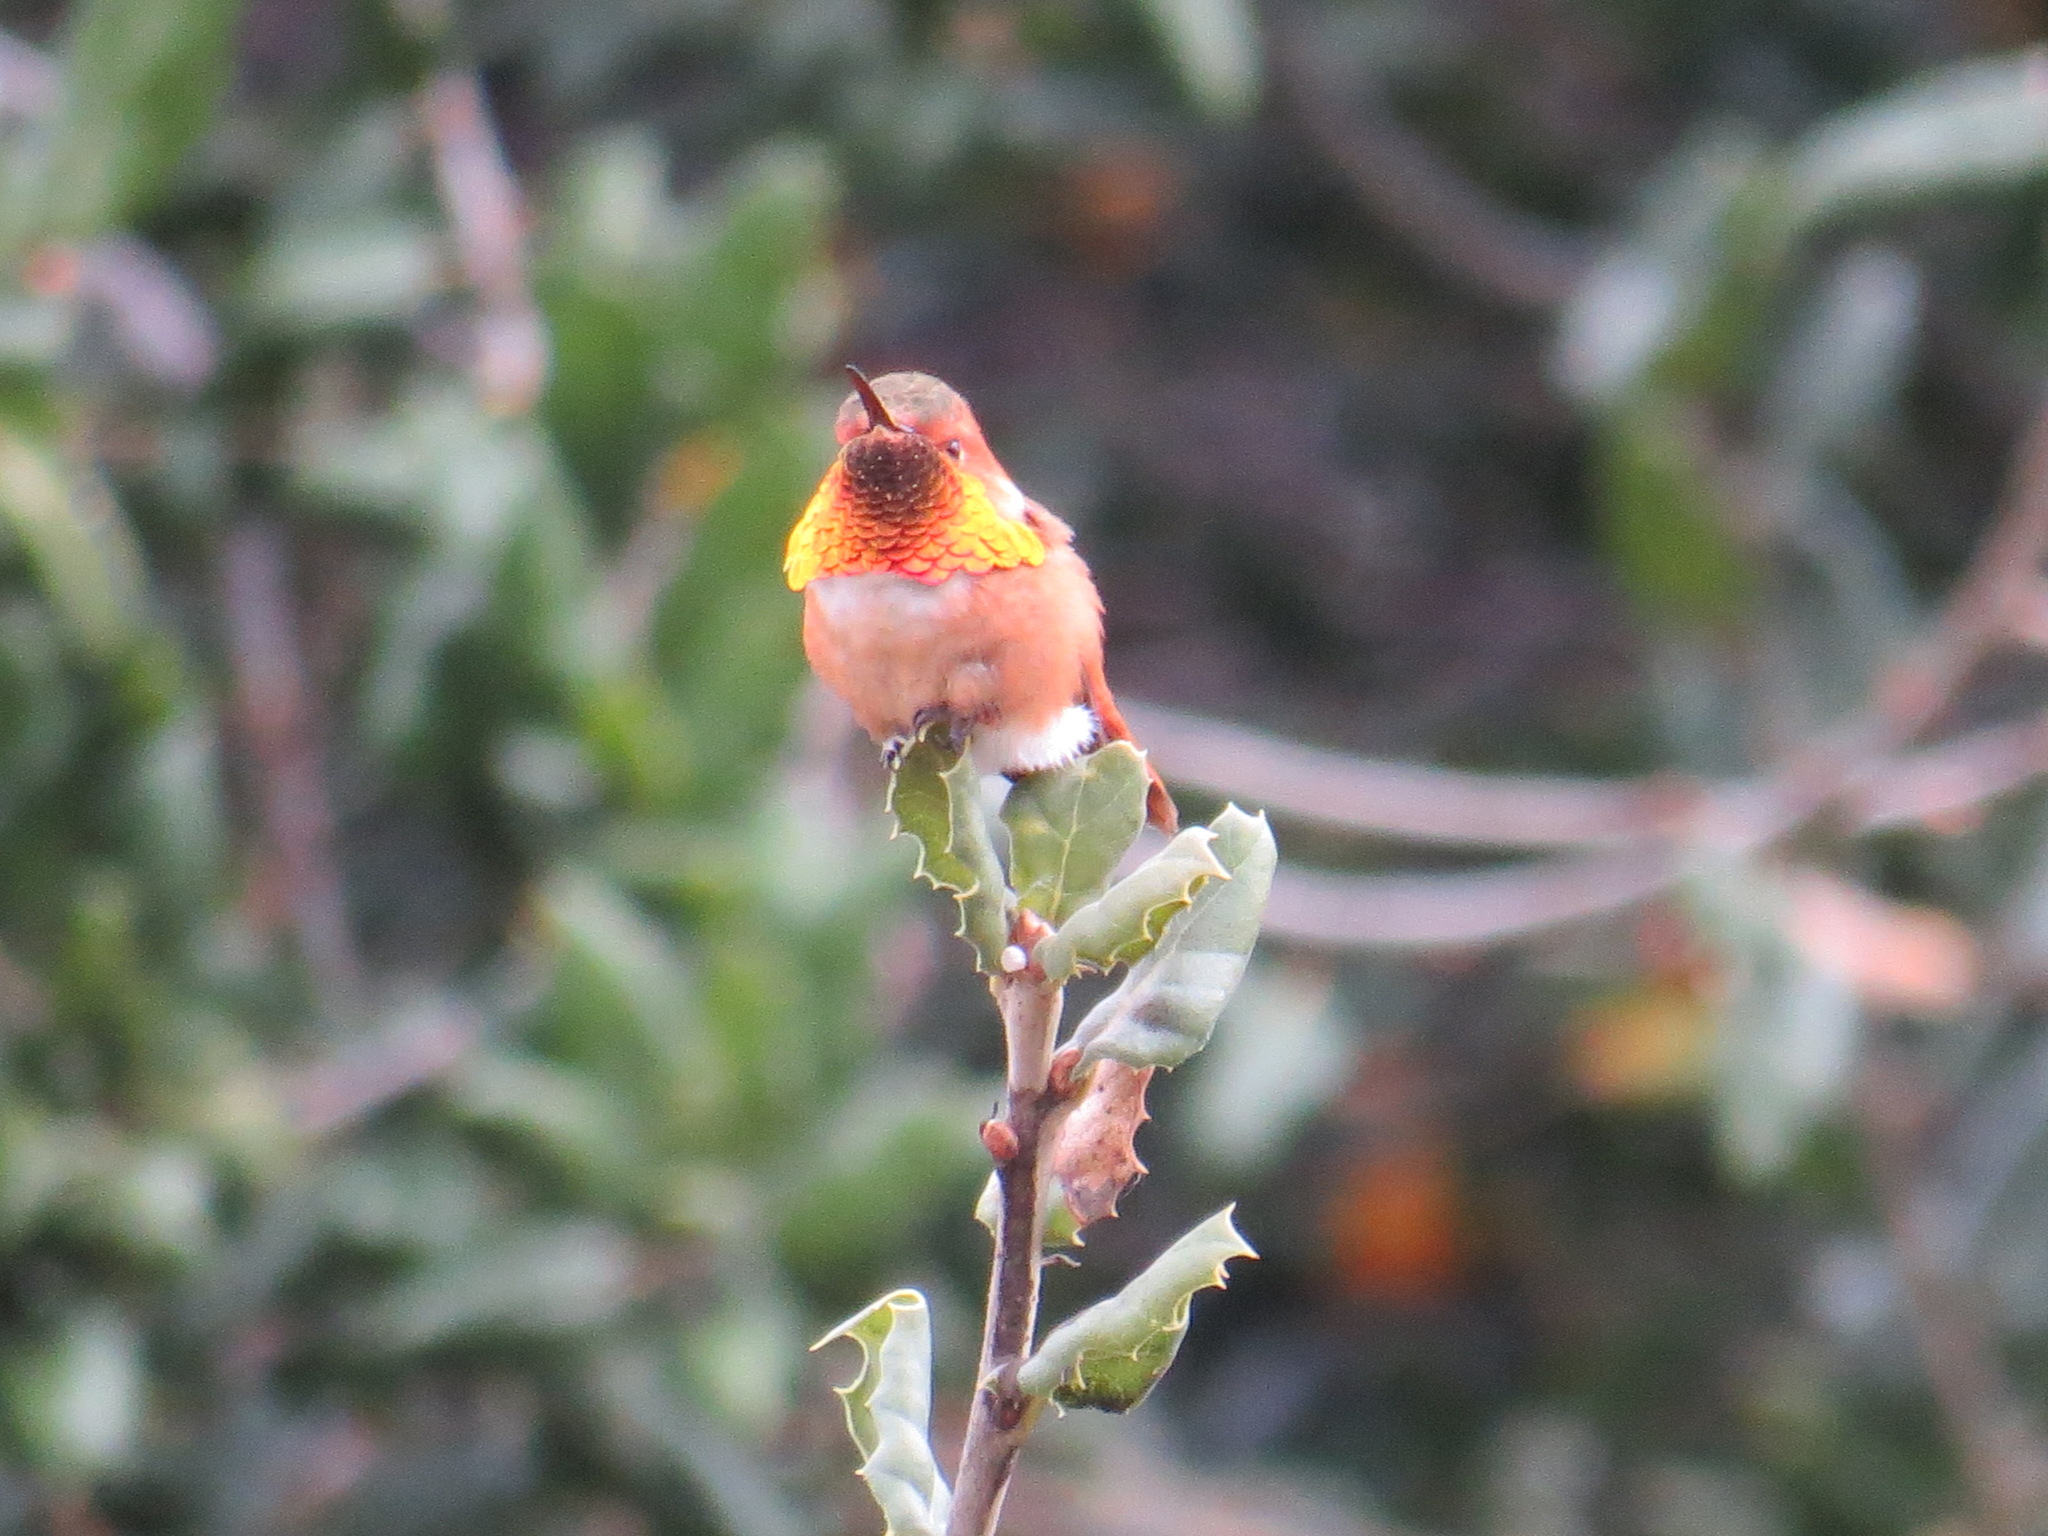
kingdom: Animalia
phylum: Chordata
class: Aves
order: Apodiformes
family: Trochilidae
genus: Selasphorus
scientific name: Selasphorus sasin
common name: Allen's hummingbird
